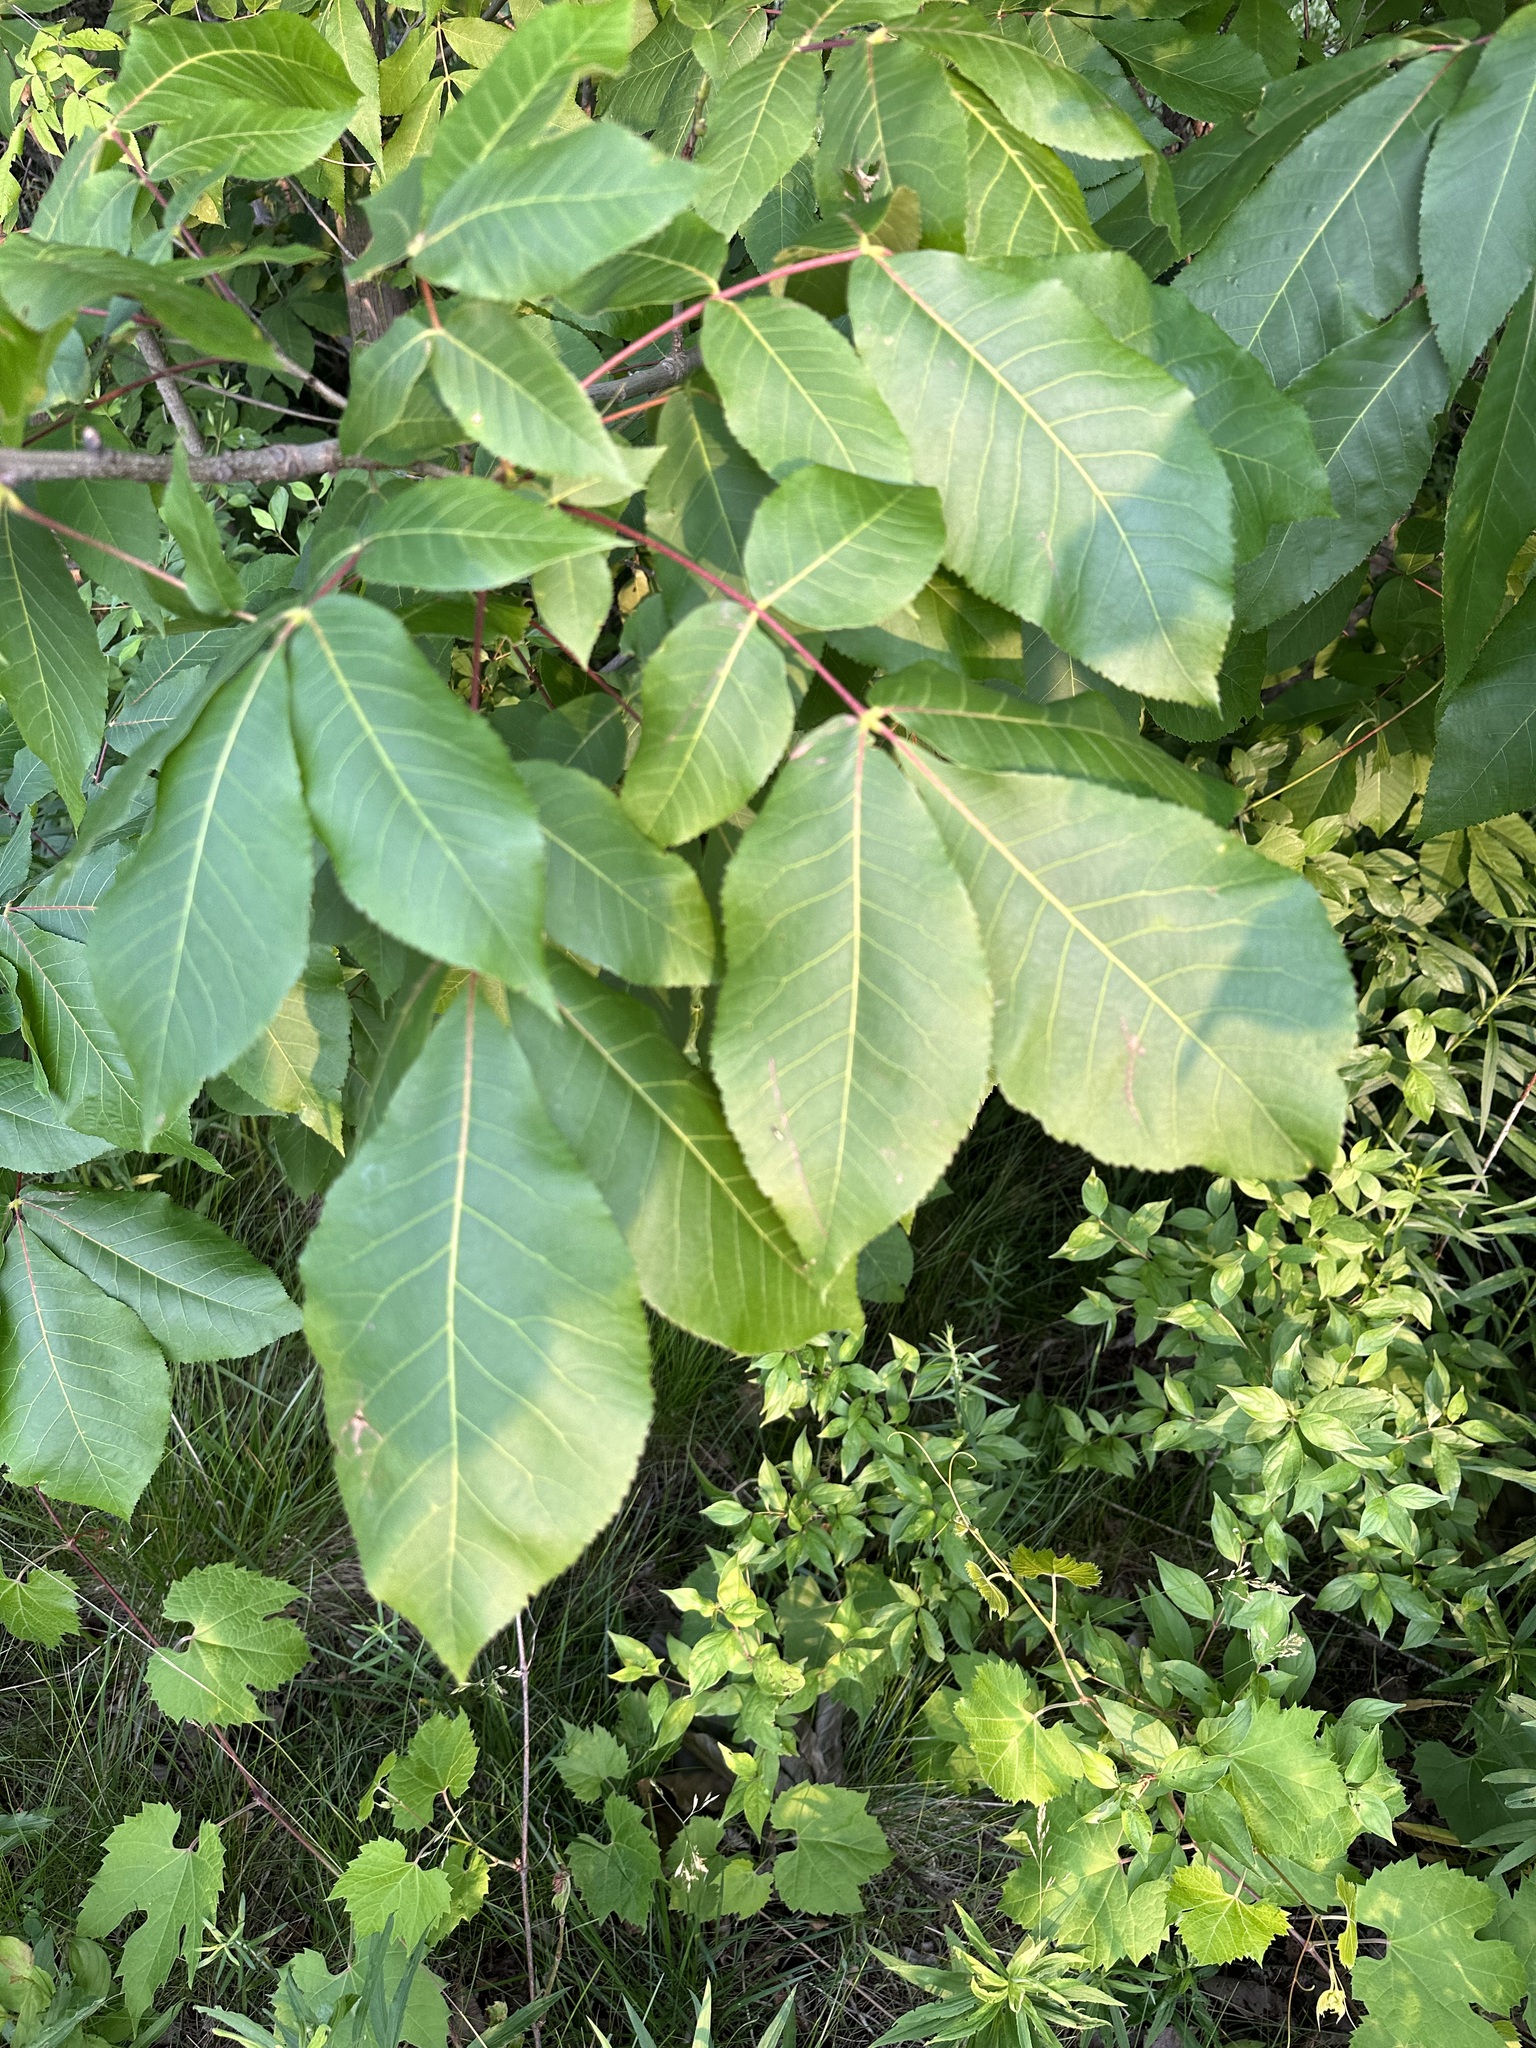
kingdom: Plantae
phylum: Tracheophyta
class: Magnoliopsida
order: Fagales
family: Juglandaceae
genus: Carya
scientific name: Carya ovata
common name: Shagbark hickory
